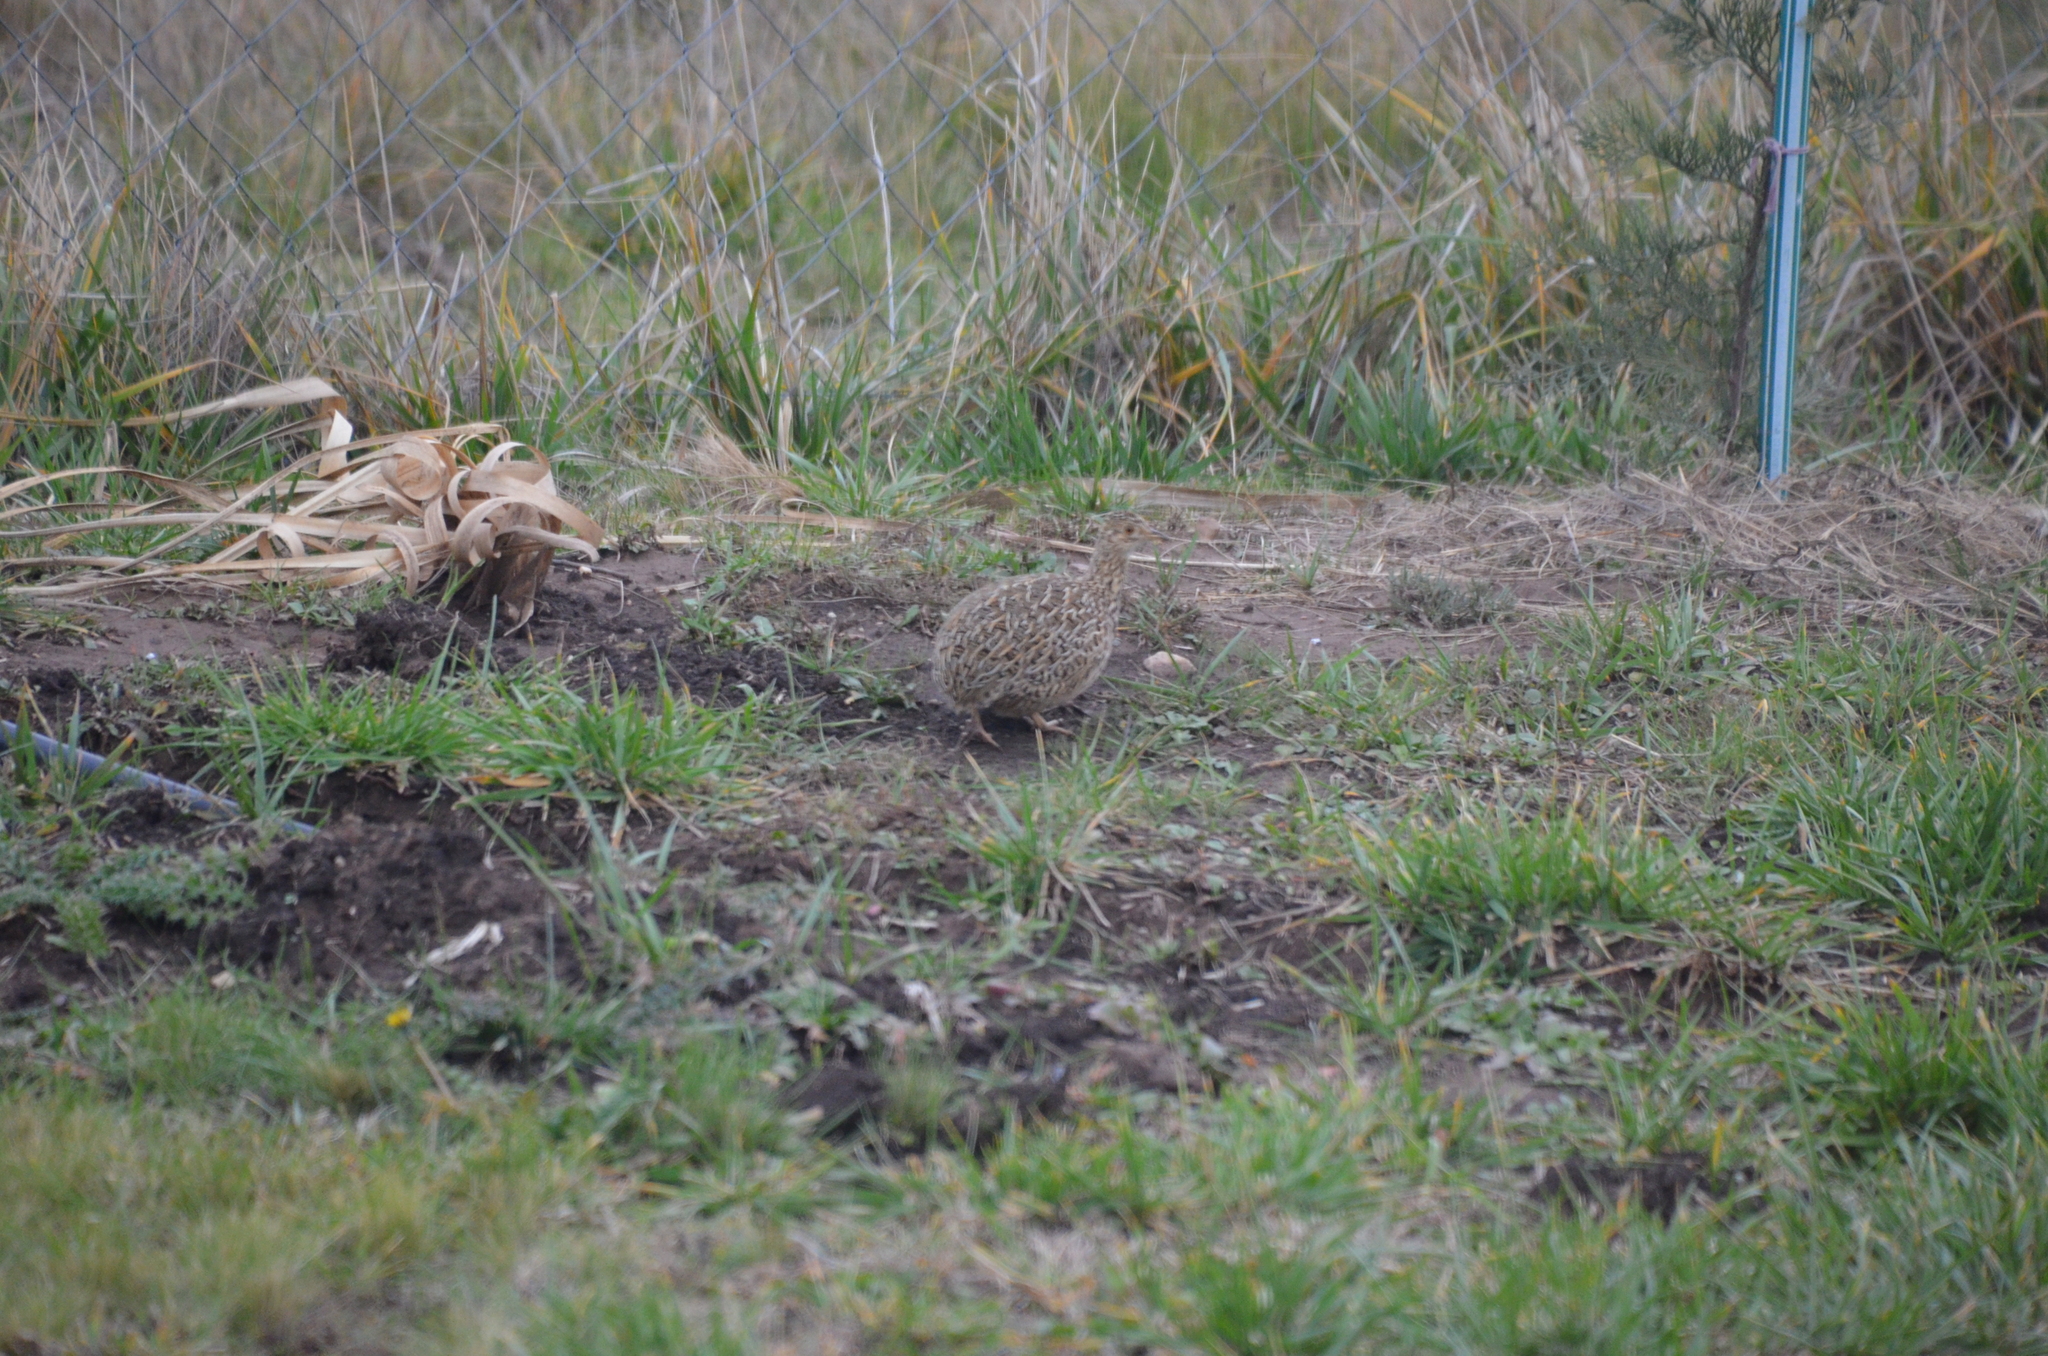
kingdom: Animalia
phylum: Chordata
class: Aves
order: Tinamiformes
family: Tinamidae
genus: Nothura
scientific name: Nothura maculosa
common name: Spotted nothura
